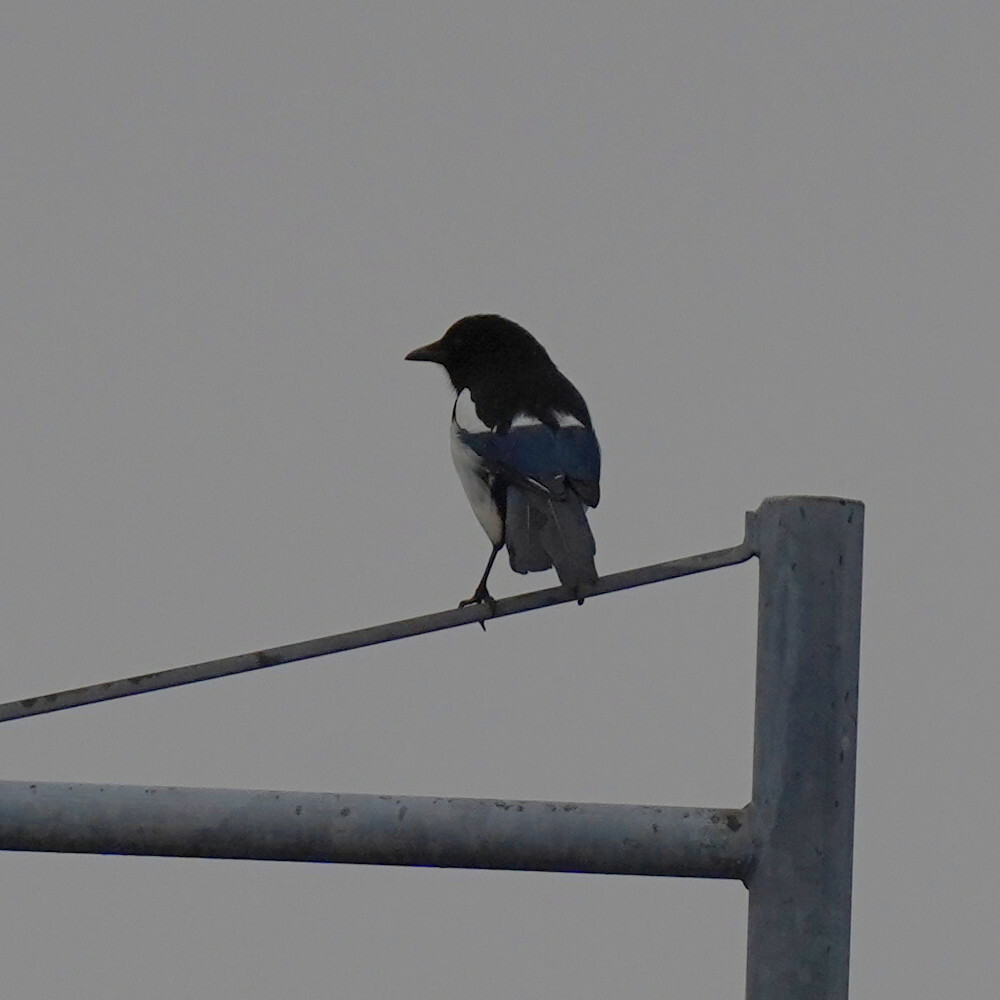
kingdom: Animalia
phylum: Chordata
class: Aves
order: Passeriformes
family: Corvidae
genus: Pica
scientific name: Pica pica
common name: Eurasian magpie
